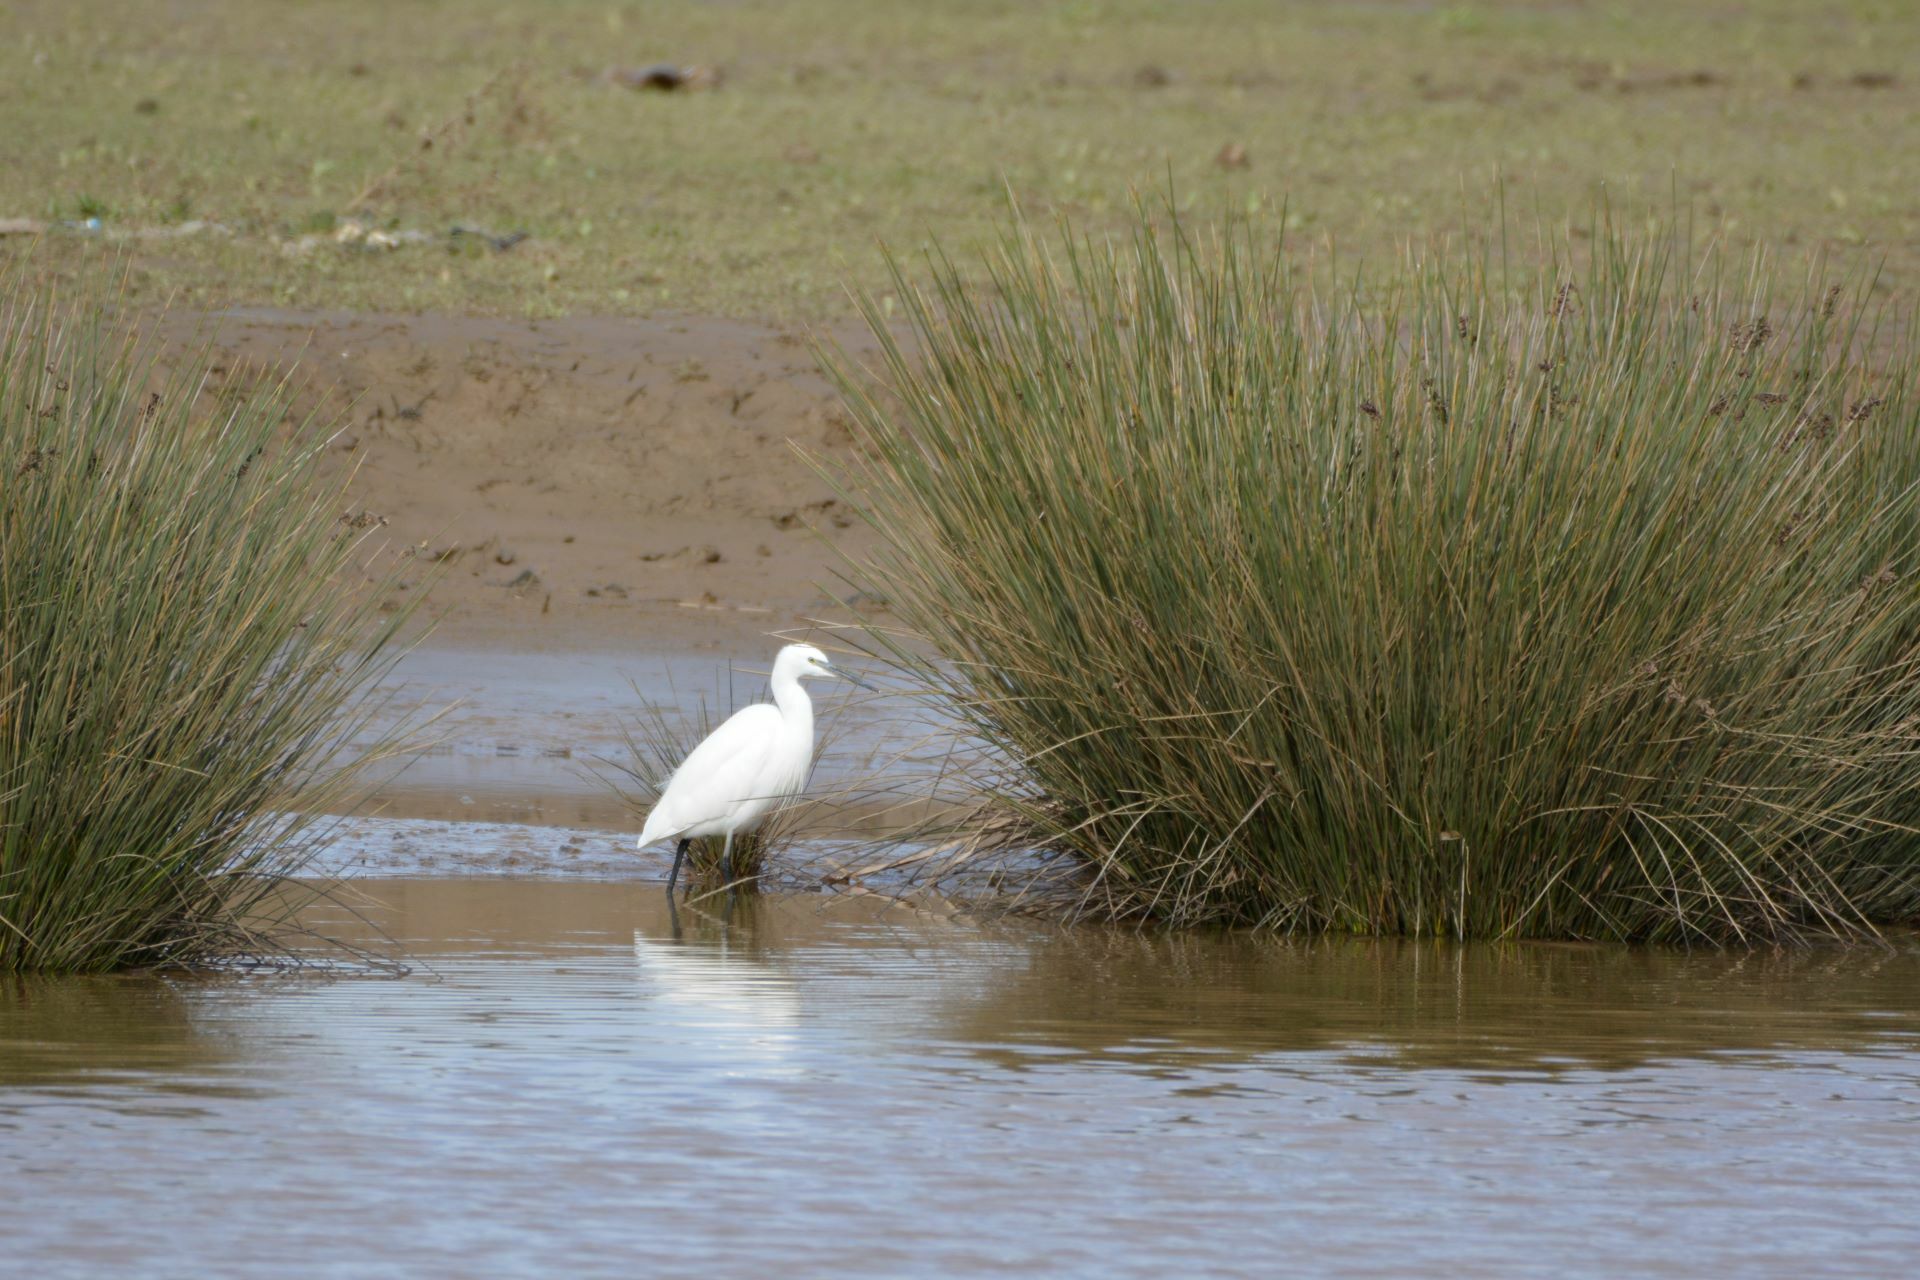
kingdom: Animalia
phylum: Chordata
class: Aves
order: Pelecaniformes
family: Ardeidae
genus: Egretta
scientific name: Egretta garzetta
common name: Little egret
